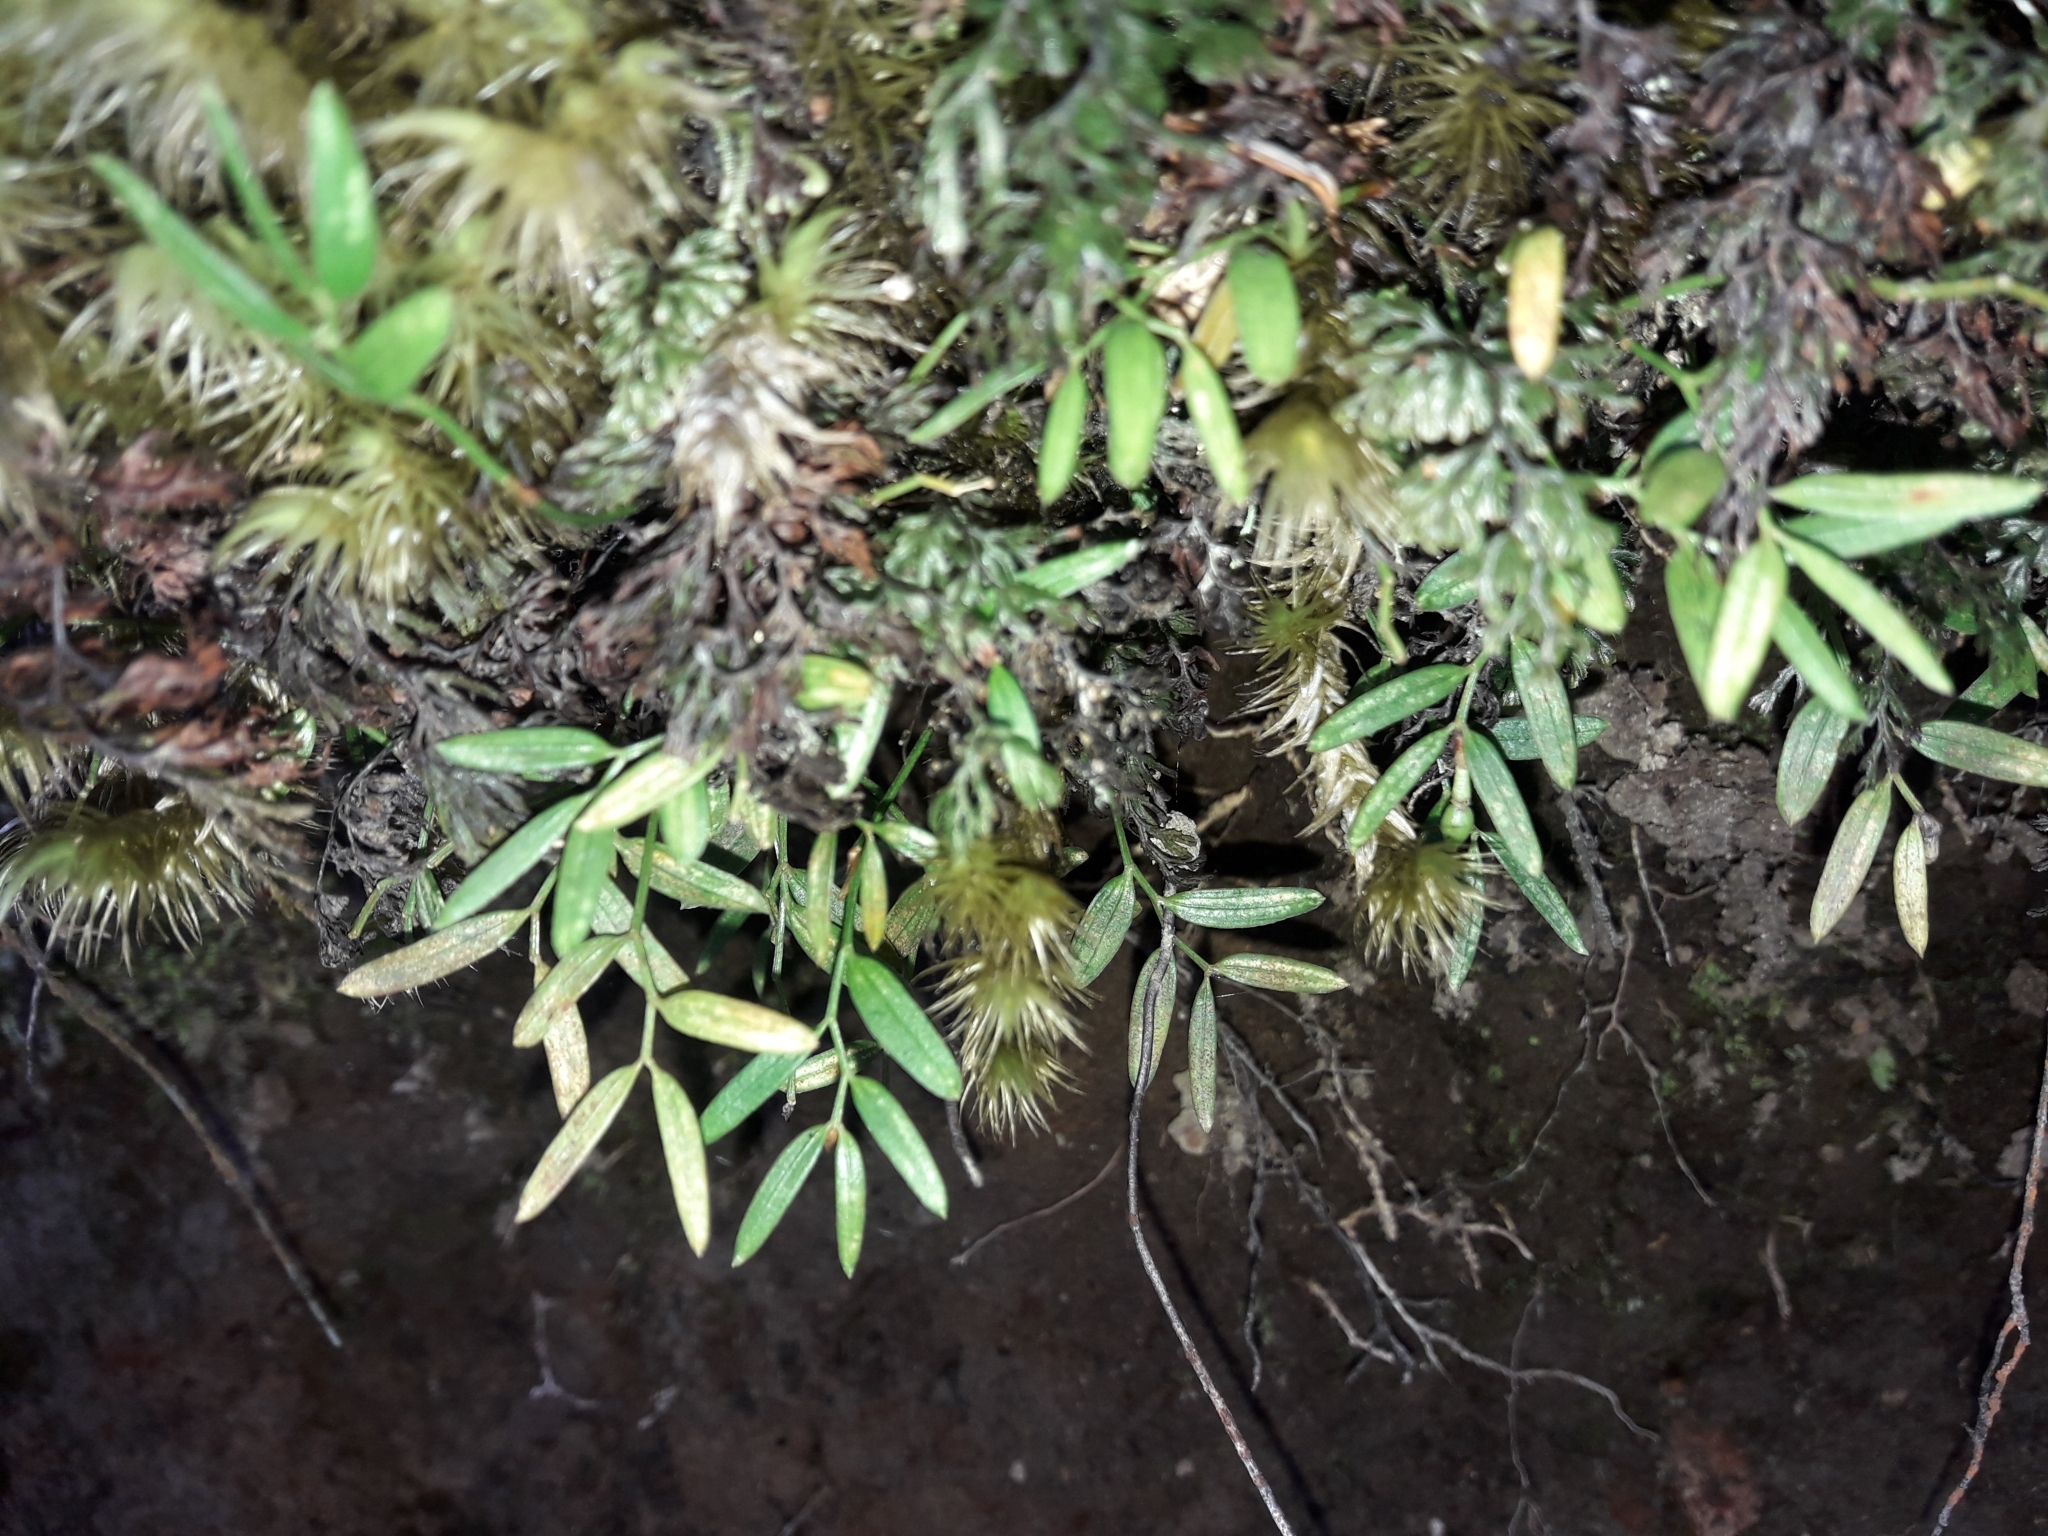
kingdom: Plantae
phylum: Tracheophyta
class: Liliopsida
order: Liliales
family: Alstroemeriaceae
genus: Luzuriaga
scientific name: Luzuriaga parviflora
